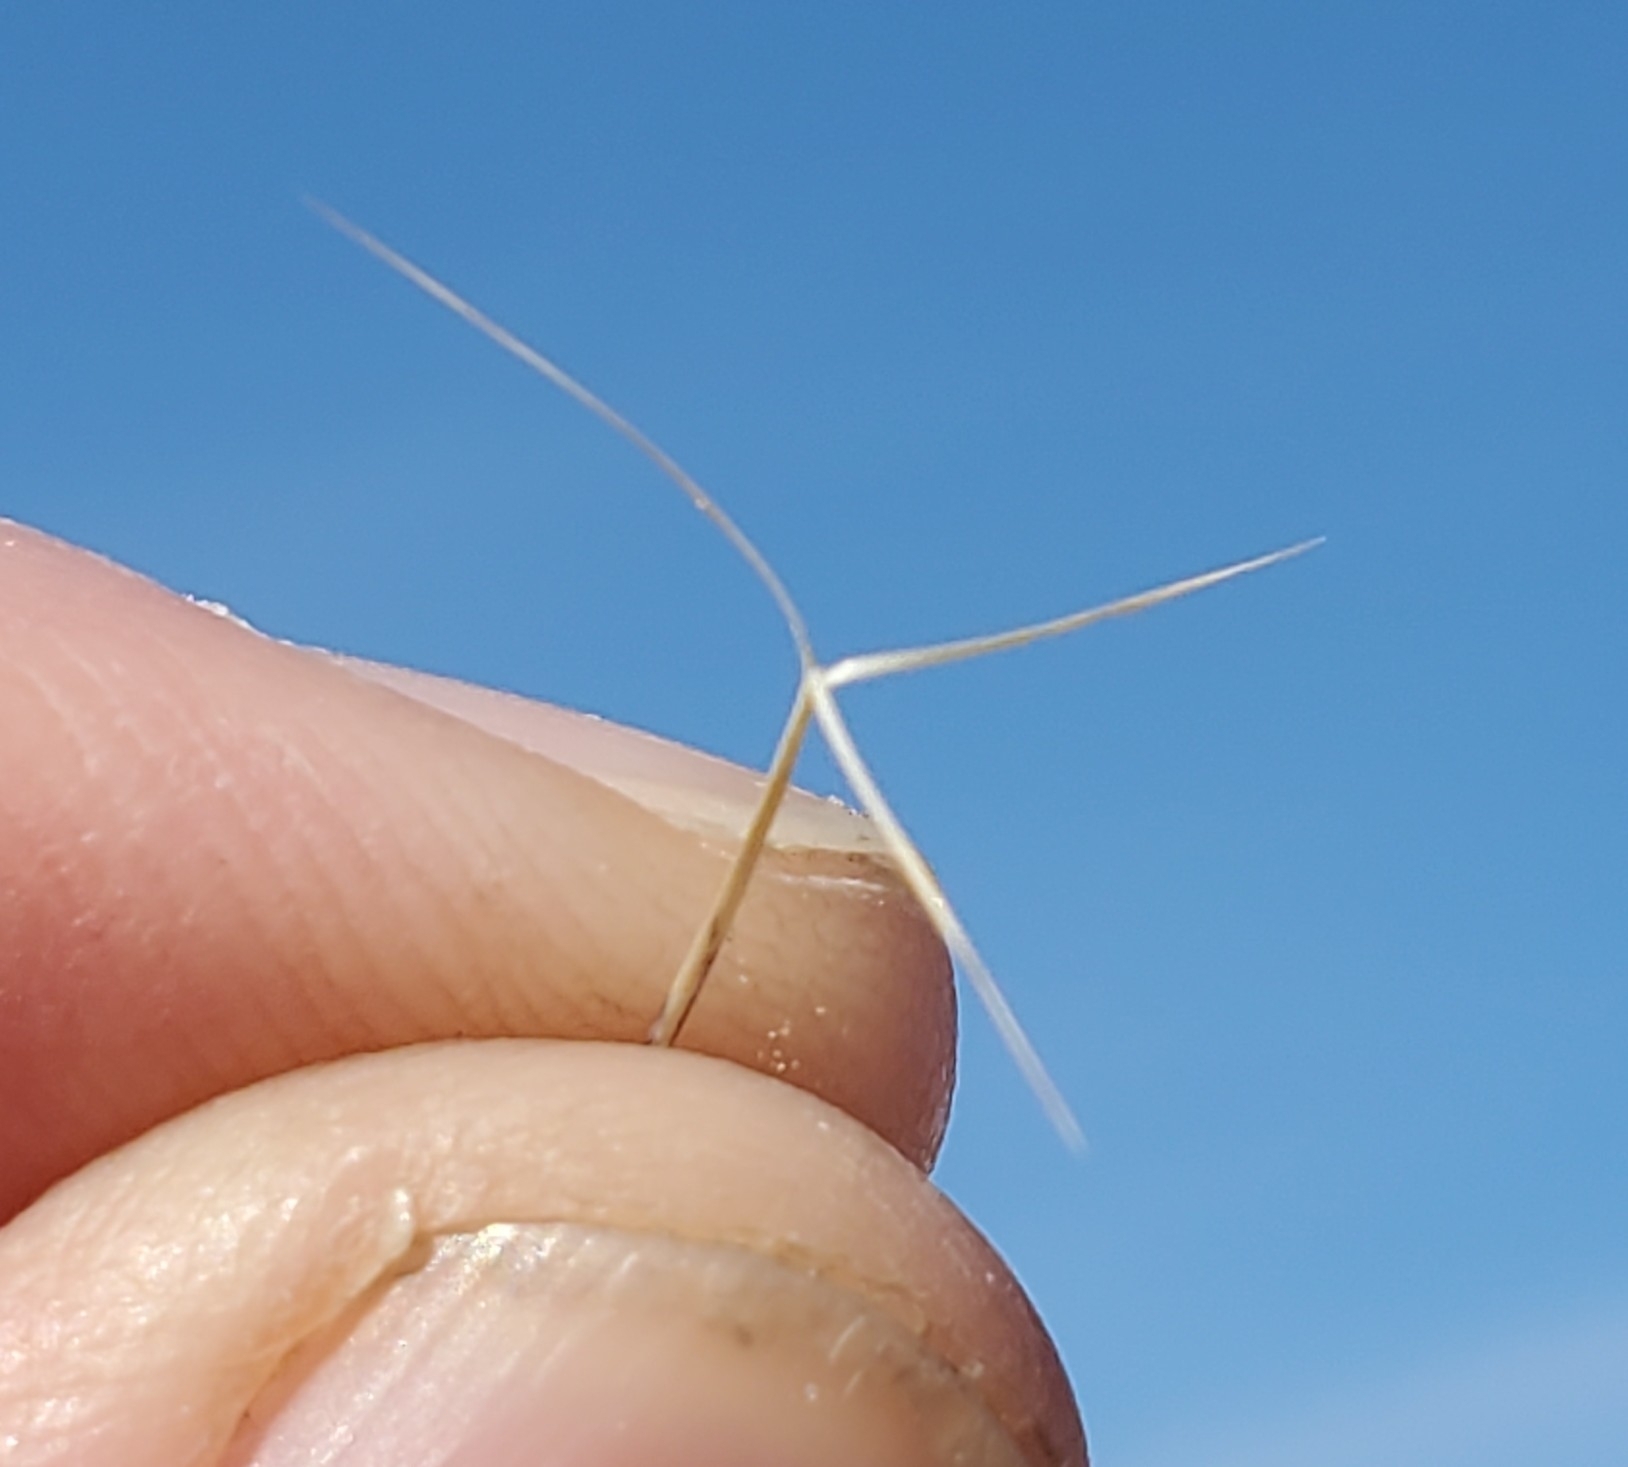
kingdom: Plantae
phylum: Tracheophyta
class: Liliopsida
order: Poales
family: Poaceae
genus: Aristida
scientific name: Aristida adscensionis
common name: Sixweeks threeawn
